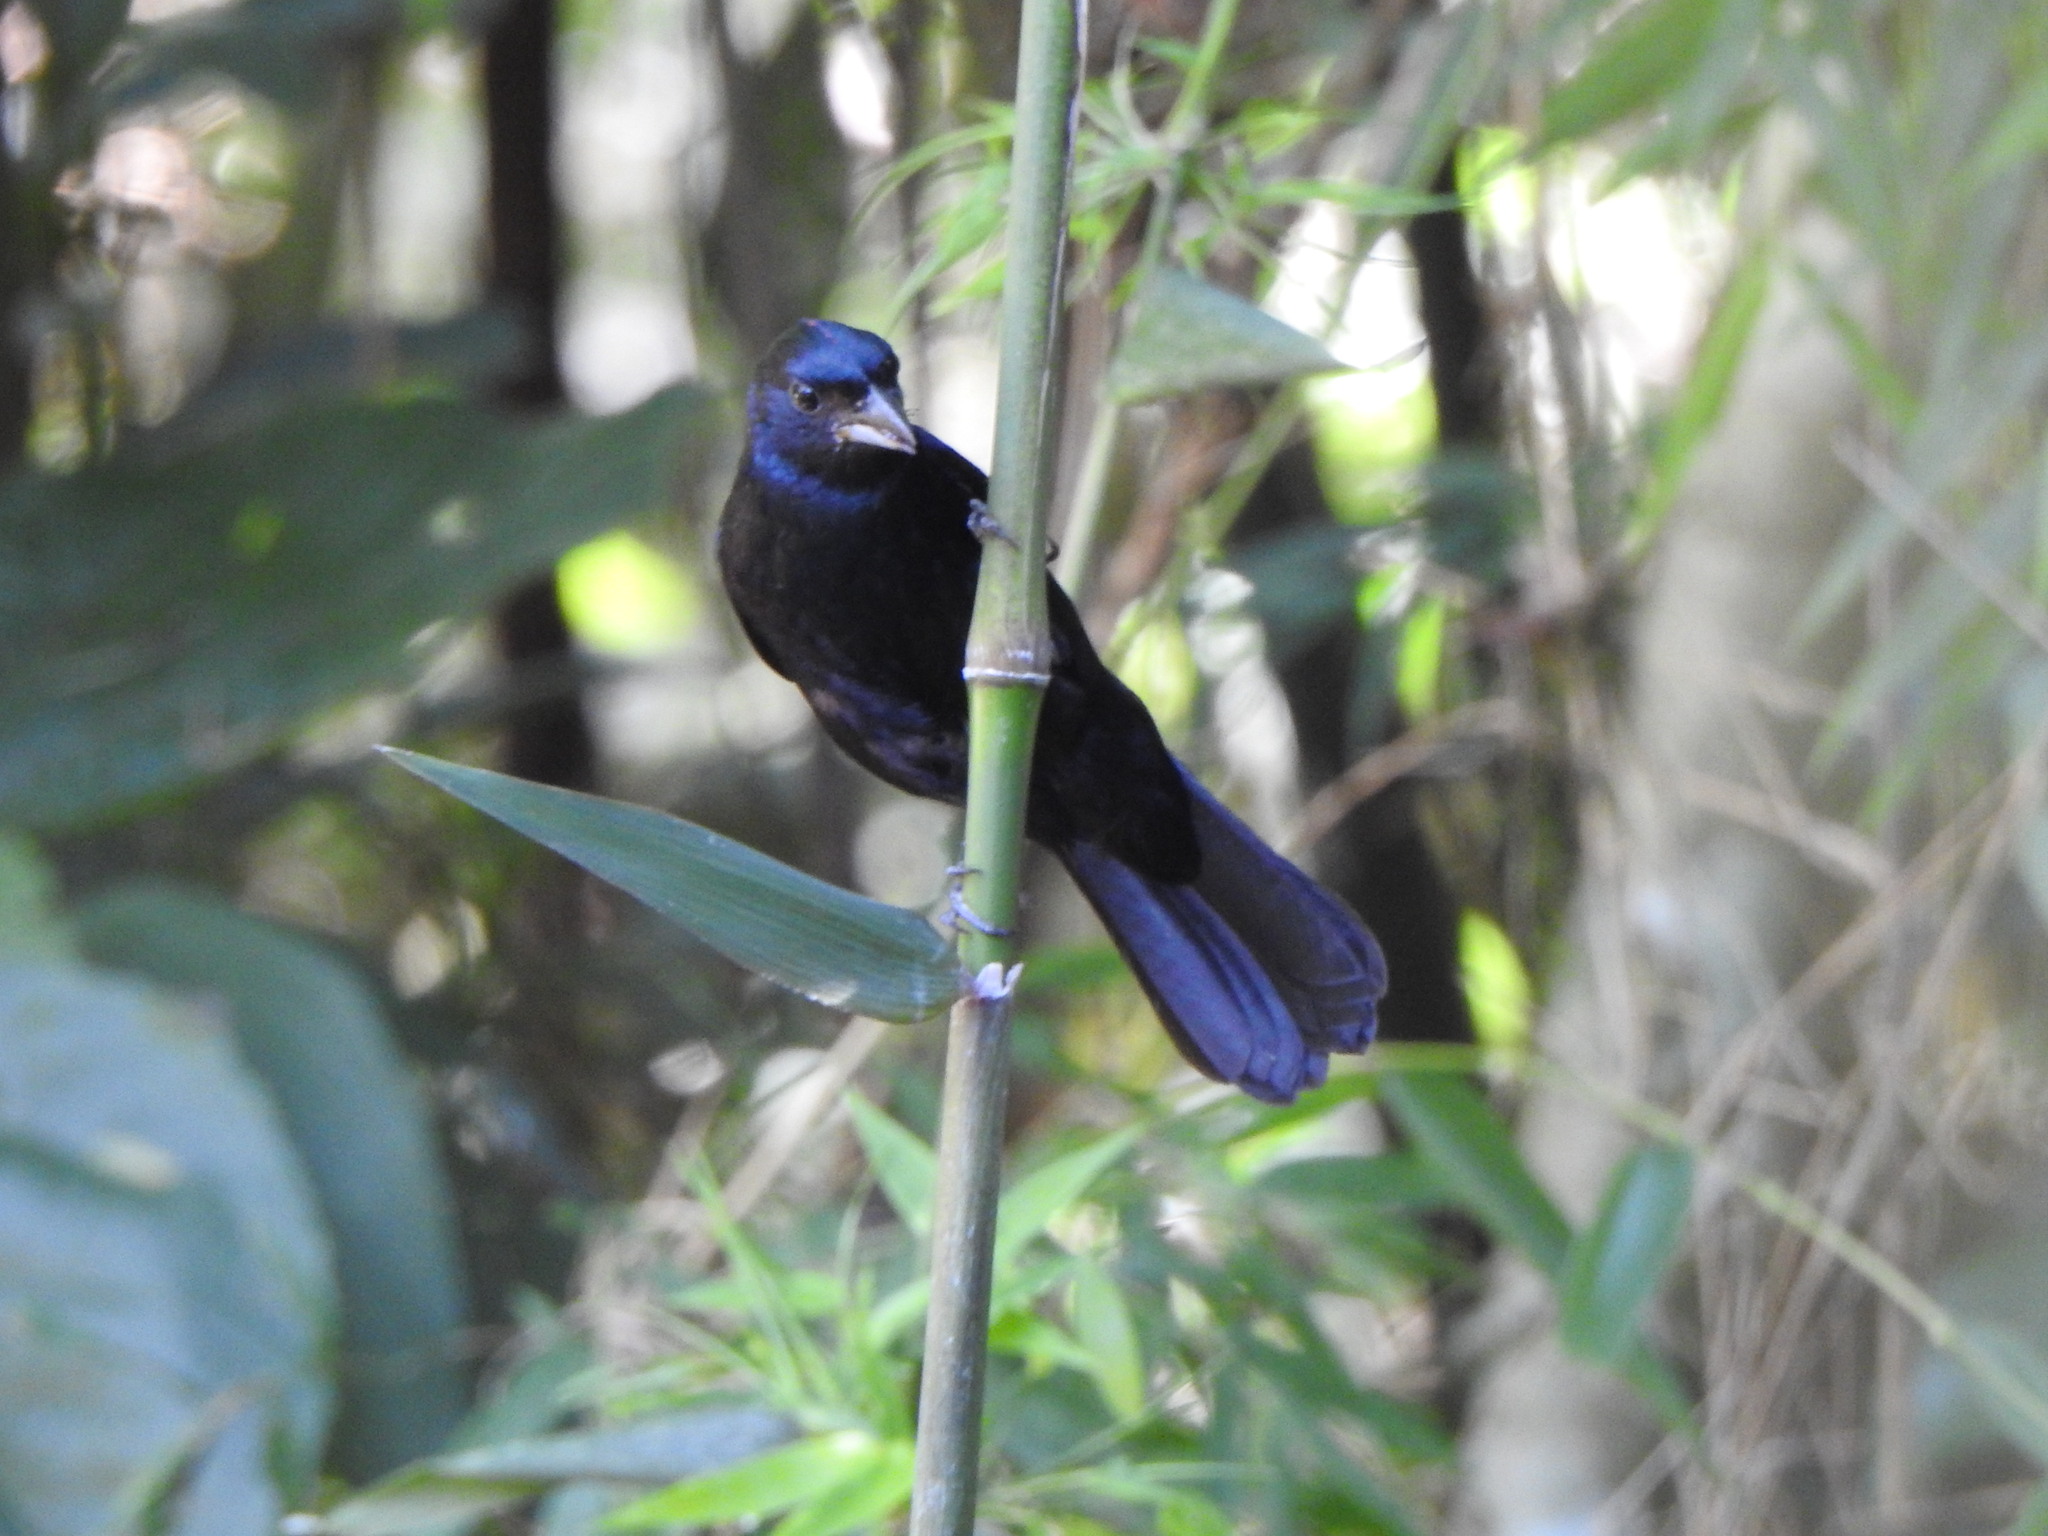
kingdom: Animalia
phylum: Chordata
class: Aves
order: Passeriformes
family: Thraupidae
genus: Tachyphonus
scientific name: Tachyphonus coronatus
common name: Ruby-crowned tanager
